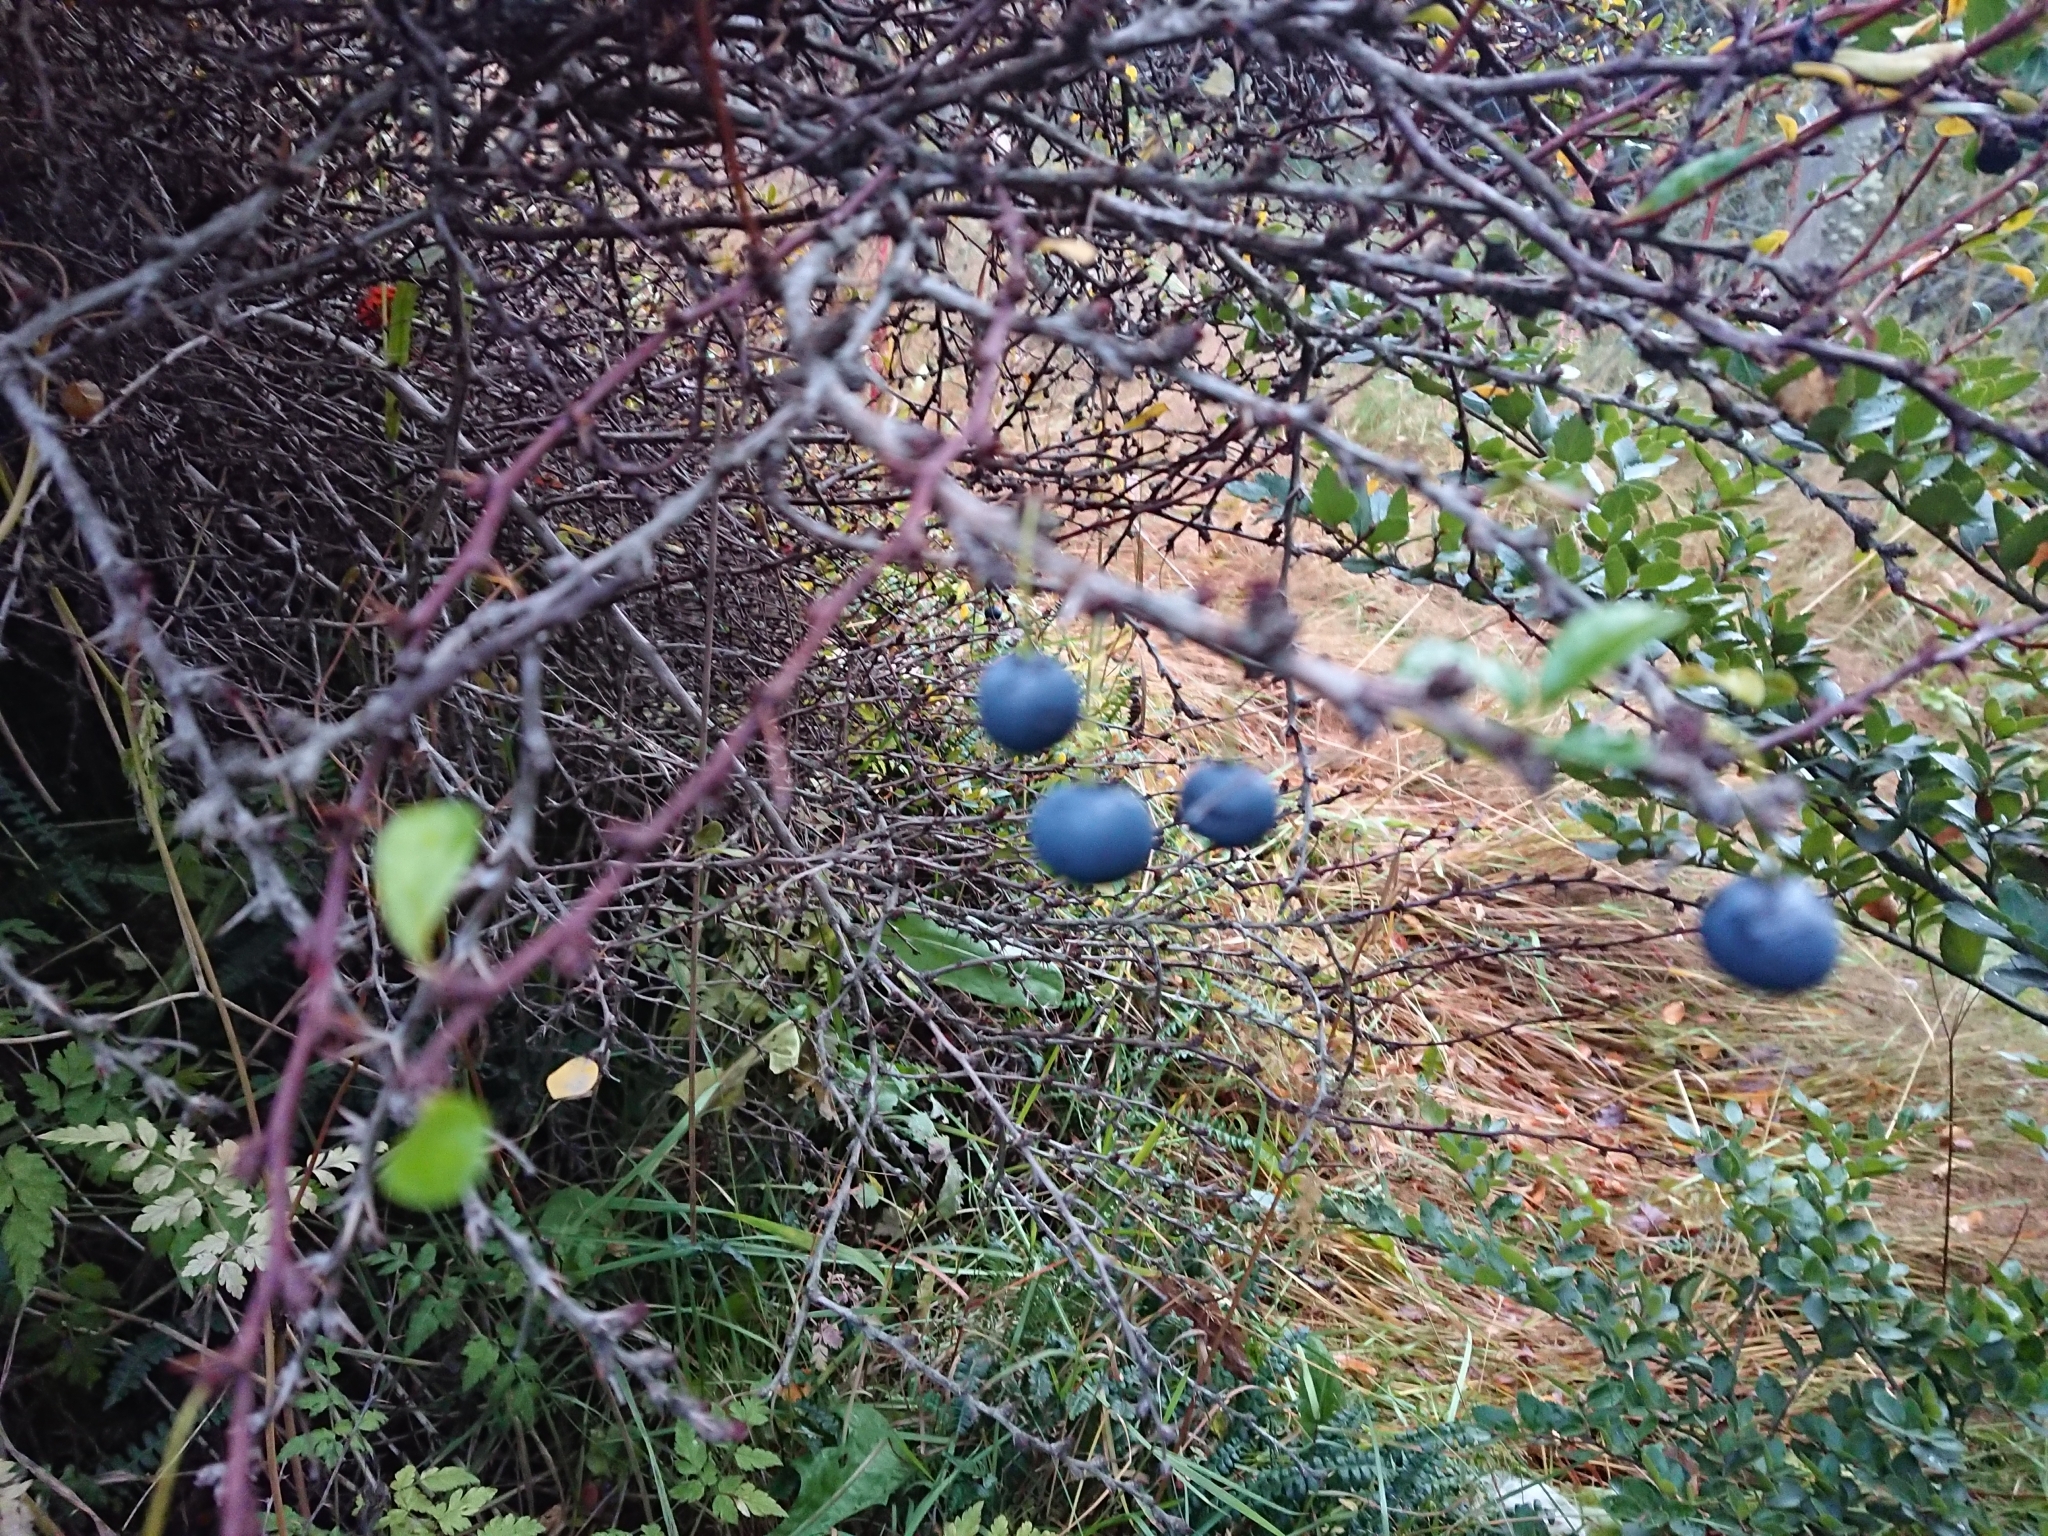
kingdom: Plantae
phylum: Tracheophyta
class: Magnoliopsida
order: Ranunculales
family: Berberidaceae
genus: Berberis
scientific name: Berberis microphylla
